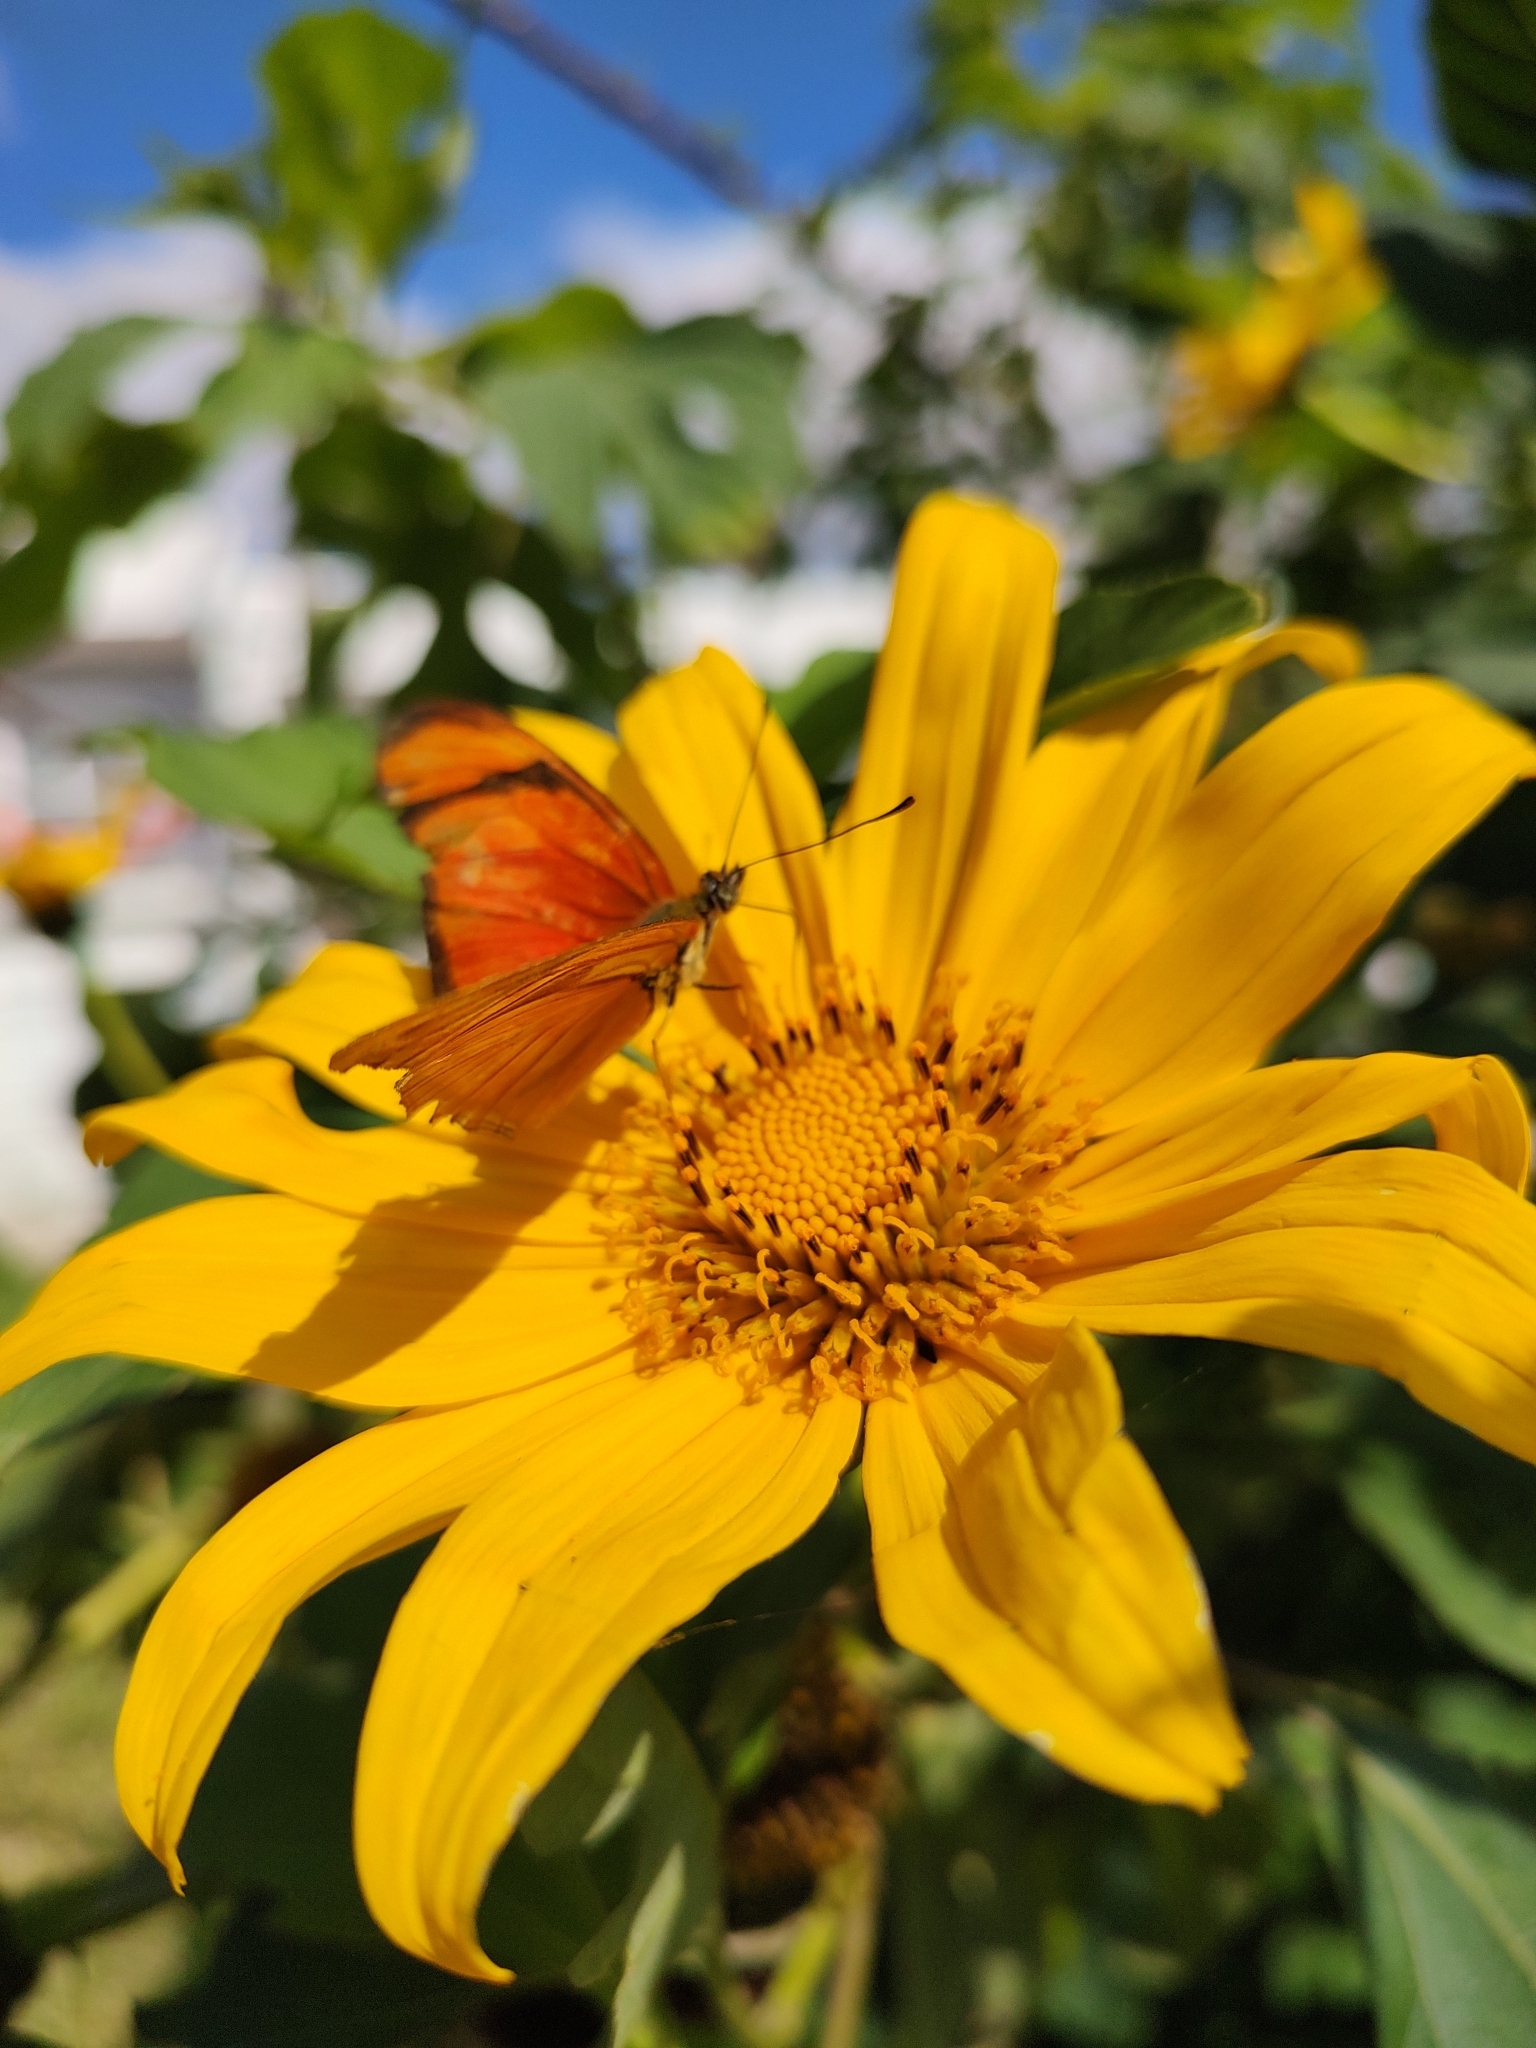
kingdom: Animalia
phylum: Arthropoda
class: Insecta
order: Lepidoptera
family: Nymphalidae
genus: Dryas
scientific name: Dryas iulia
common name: Flambeau
